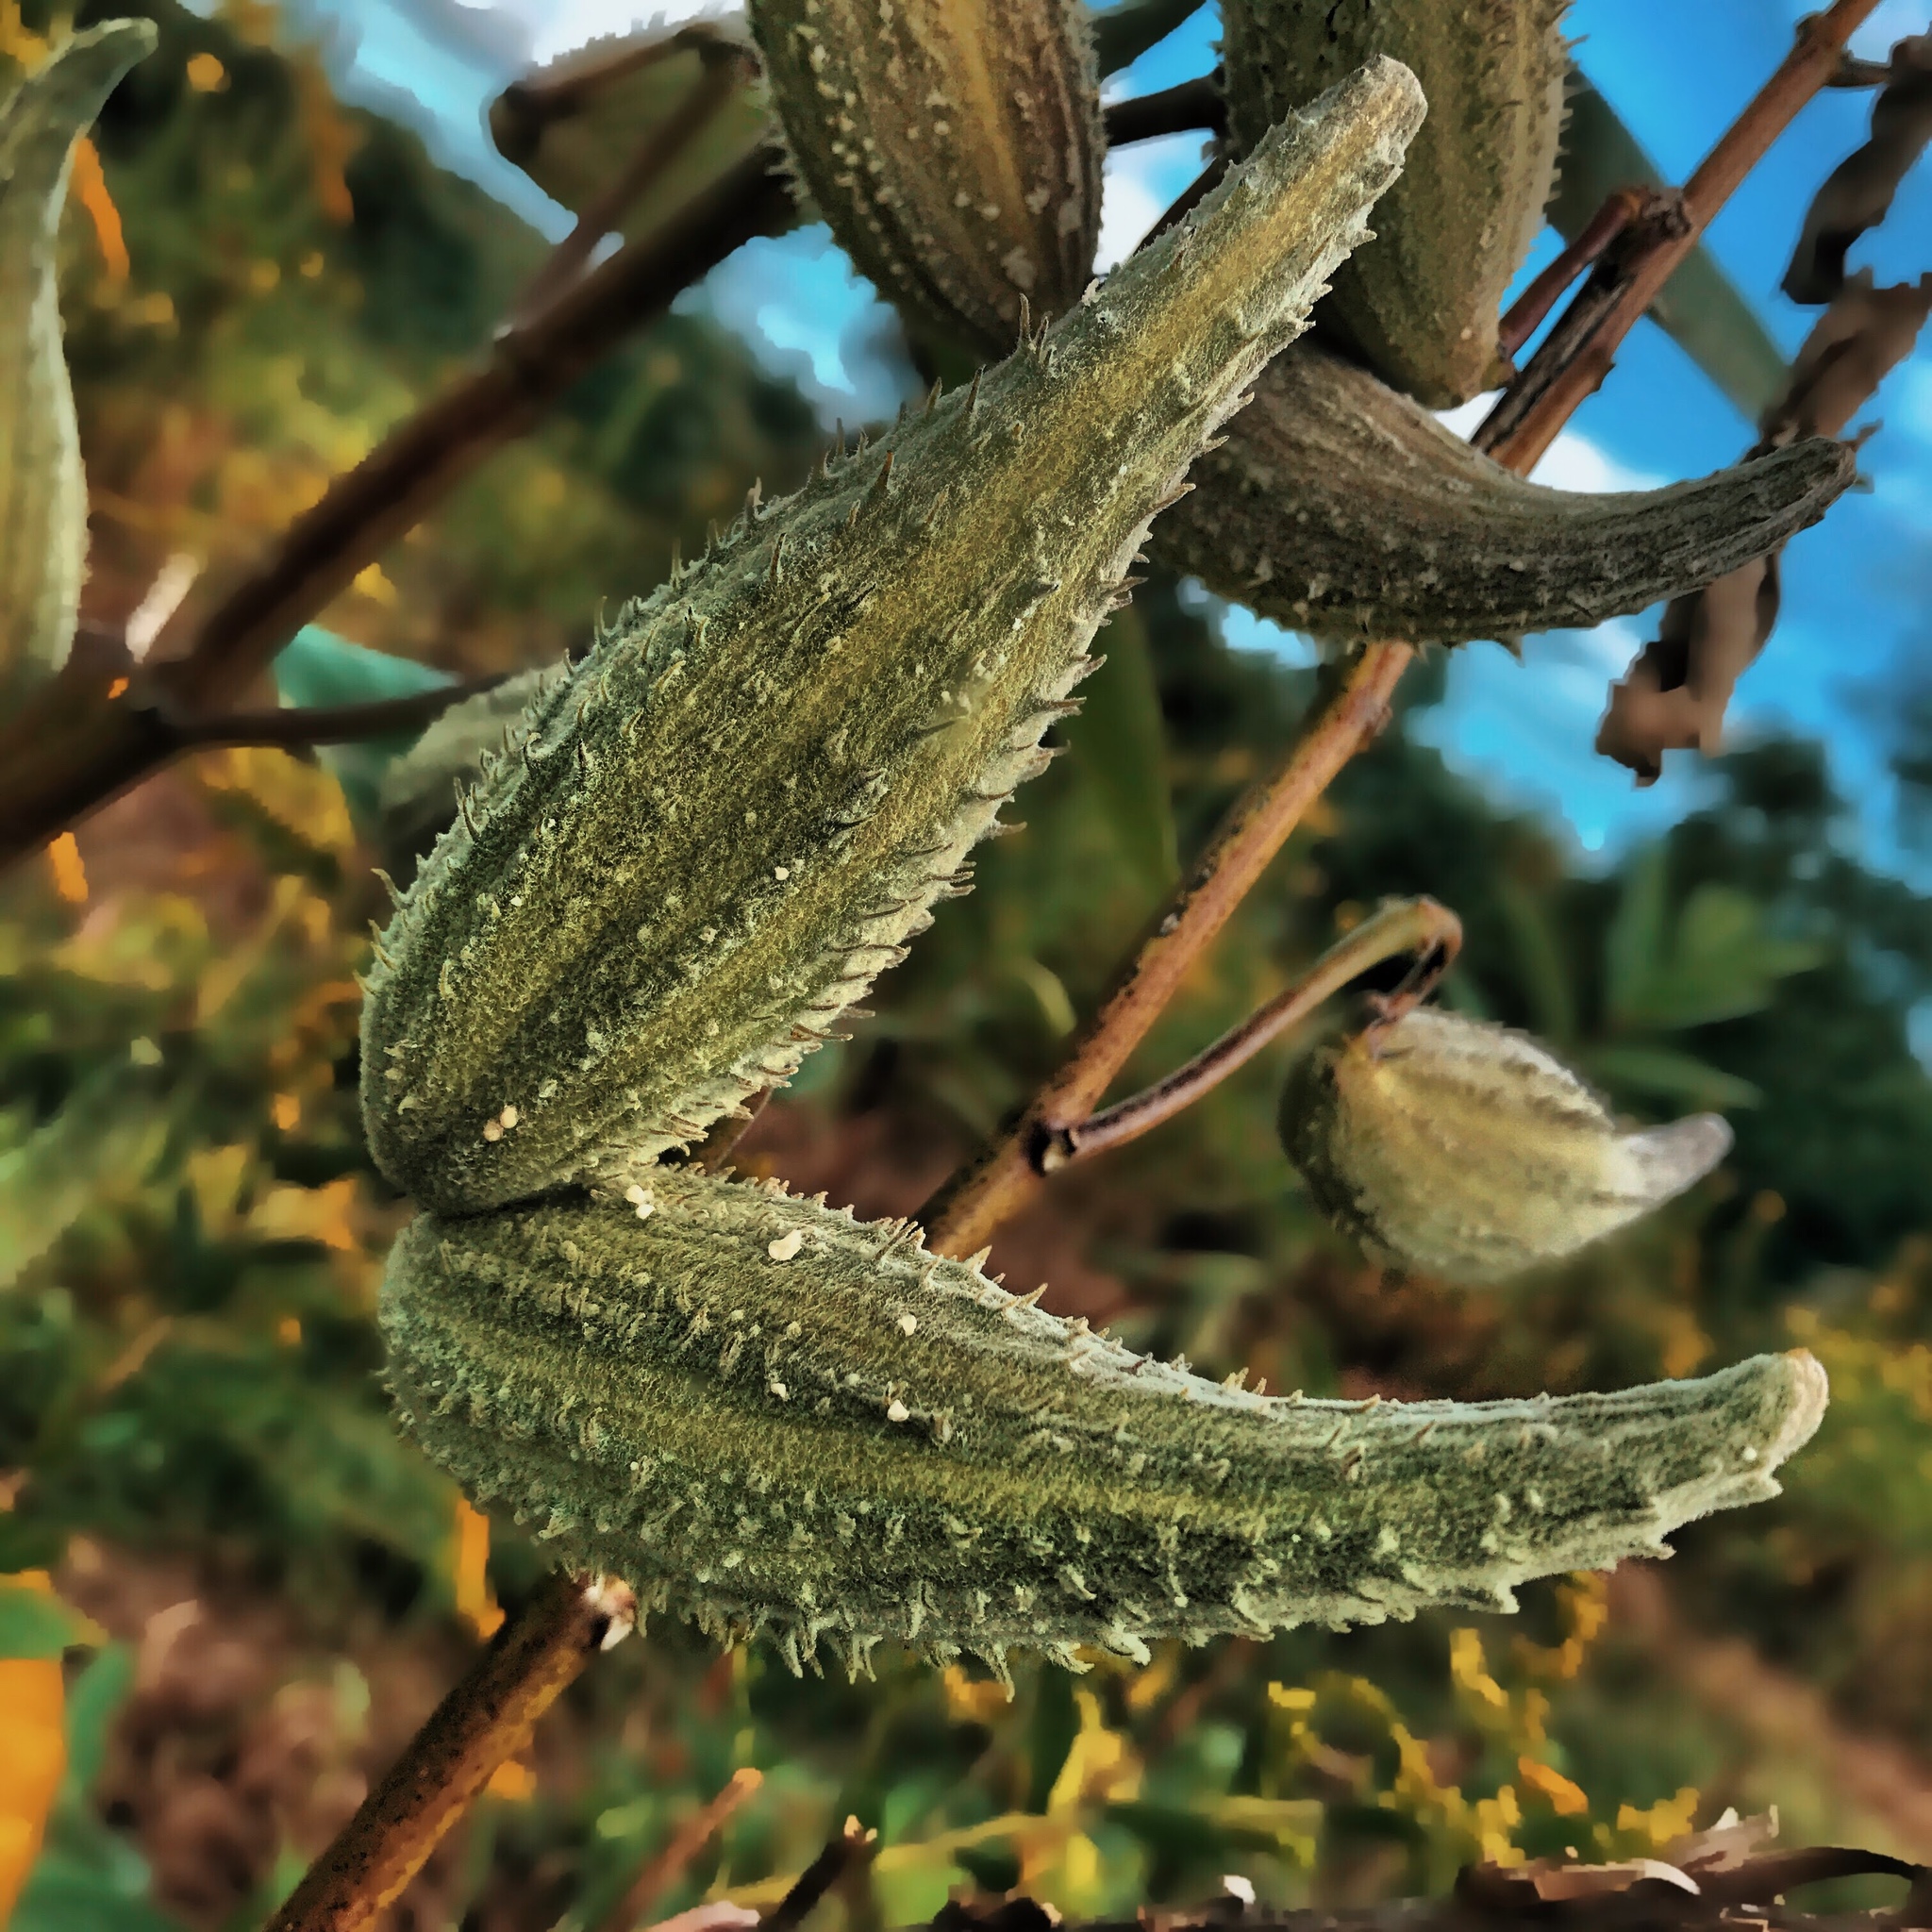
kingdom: Plantae
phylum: Tracheophyta
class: Magnoliopsida
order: Gentianales
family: Apocynaceae
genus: Asclepias
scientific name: Asclepias syriaca
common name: Common milkweed
